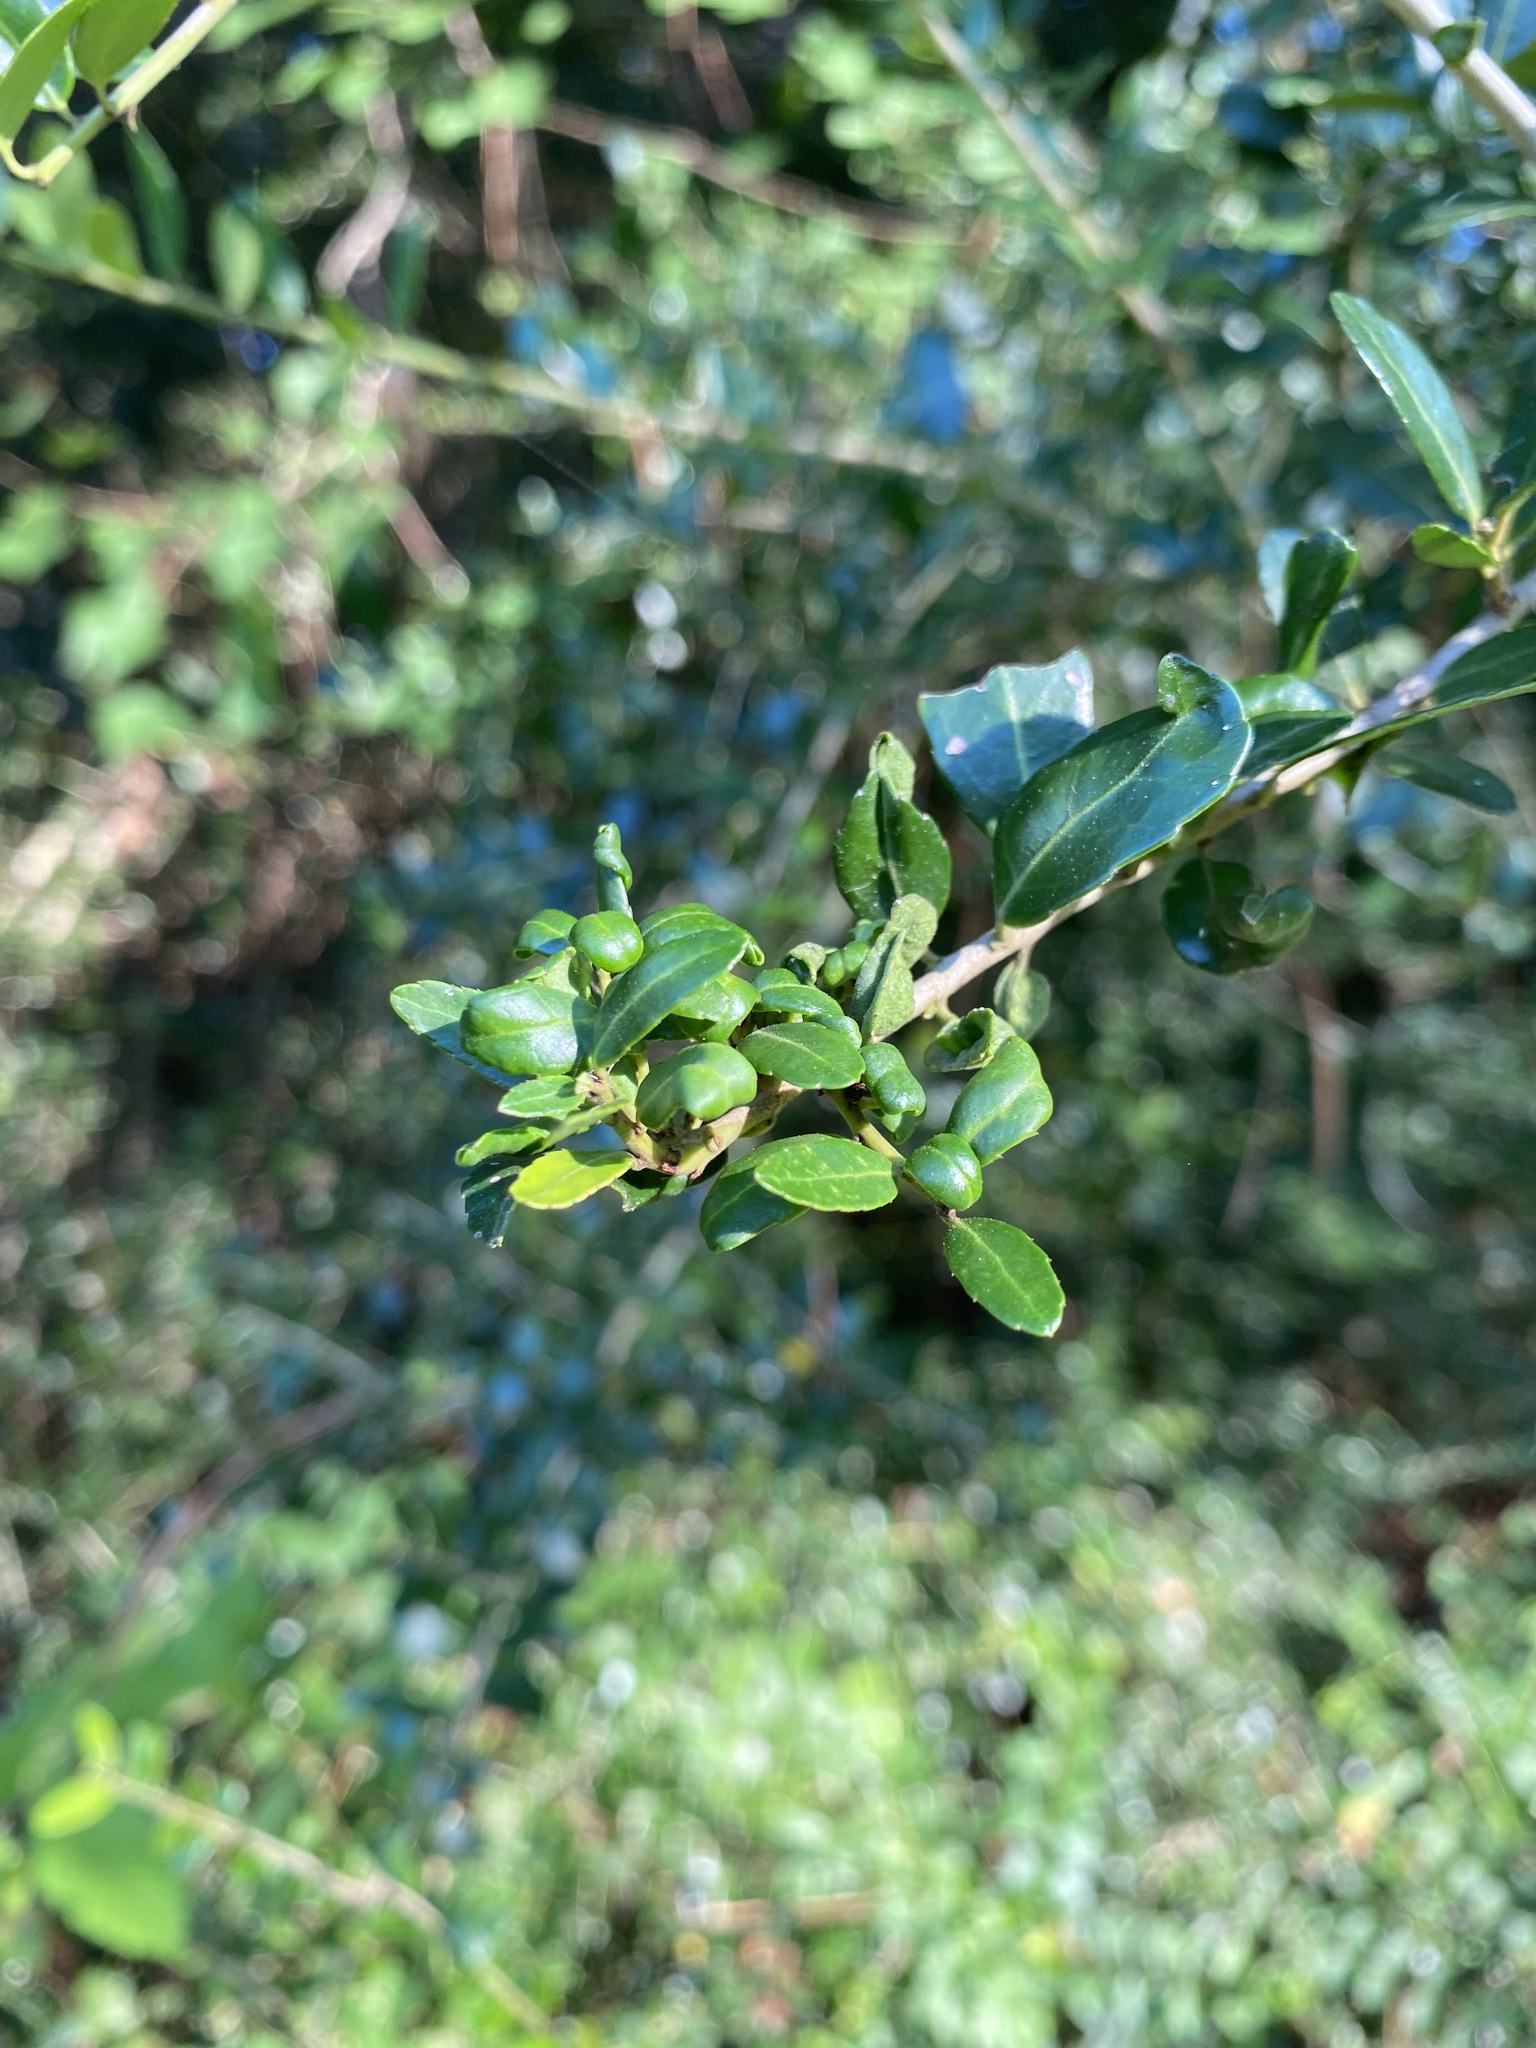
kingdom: Animalia
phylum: Arthropoda
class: Insecta
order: Hemiptera
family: Aphalaridae
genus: Gyropsylla
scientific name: Gyropsylla ilecis
